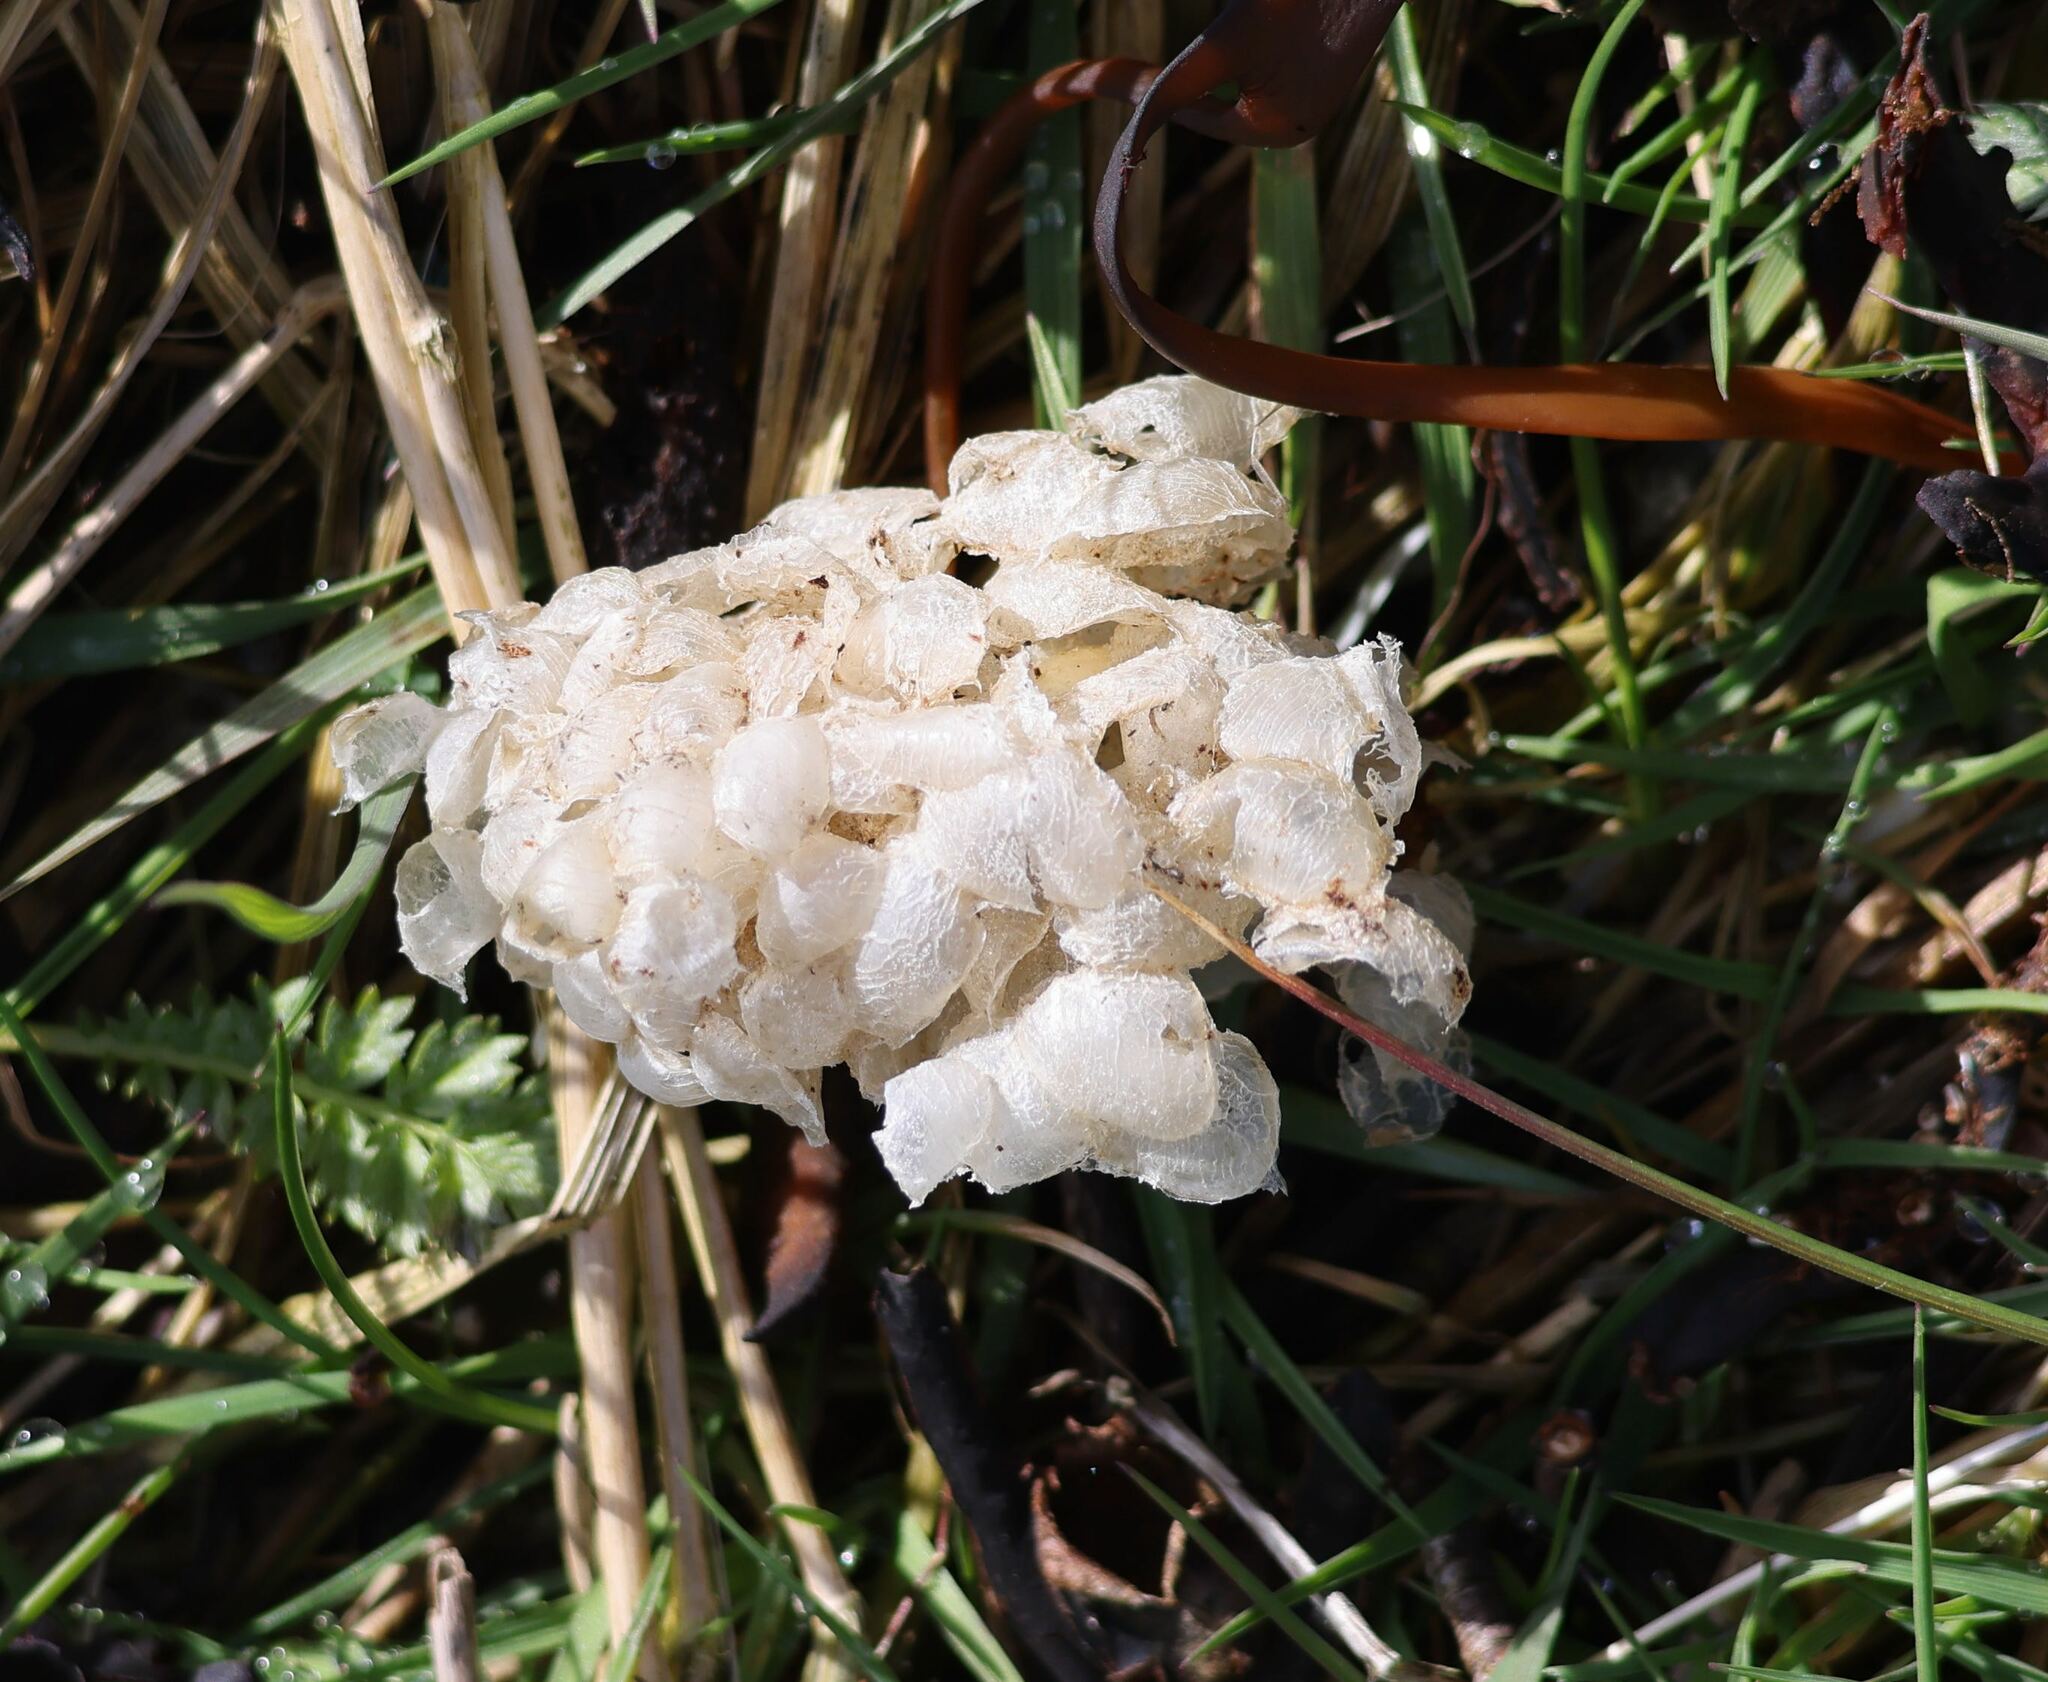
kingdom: Animalia
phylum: Mollusca
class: Gastropoda
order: Neogastropoda
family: Buccinidae
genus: Buccinum
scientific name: Buccinum undatum
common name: Common whelk
